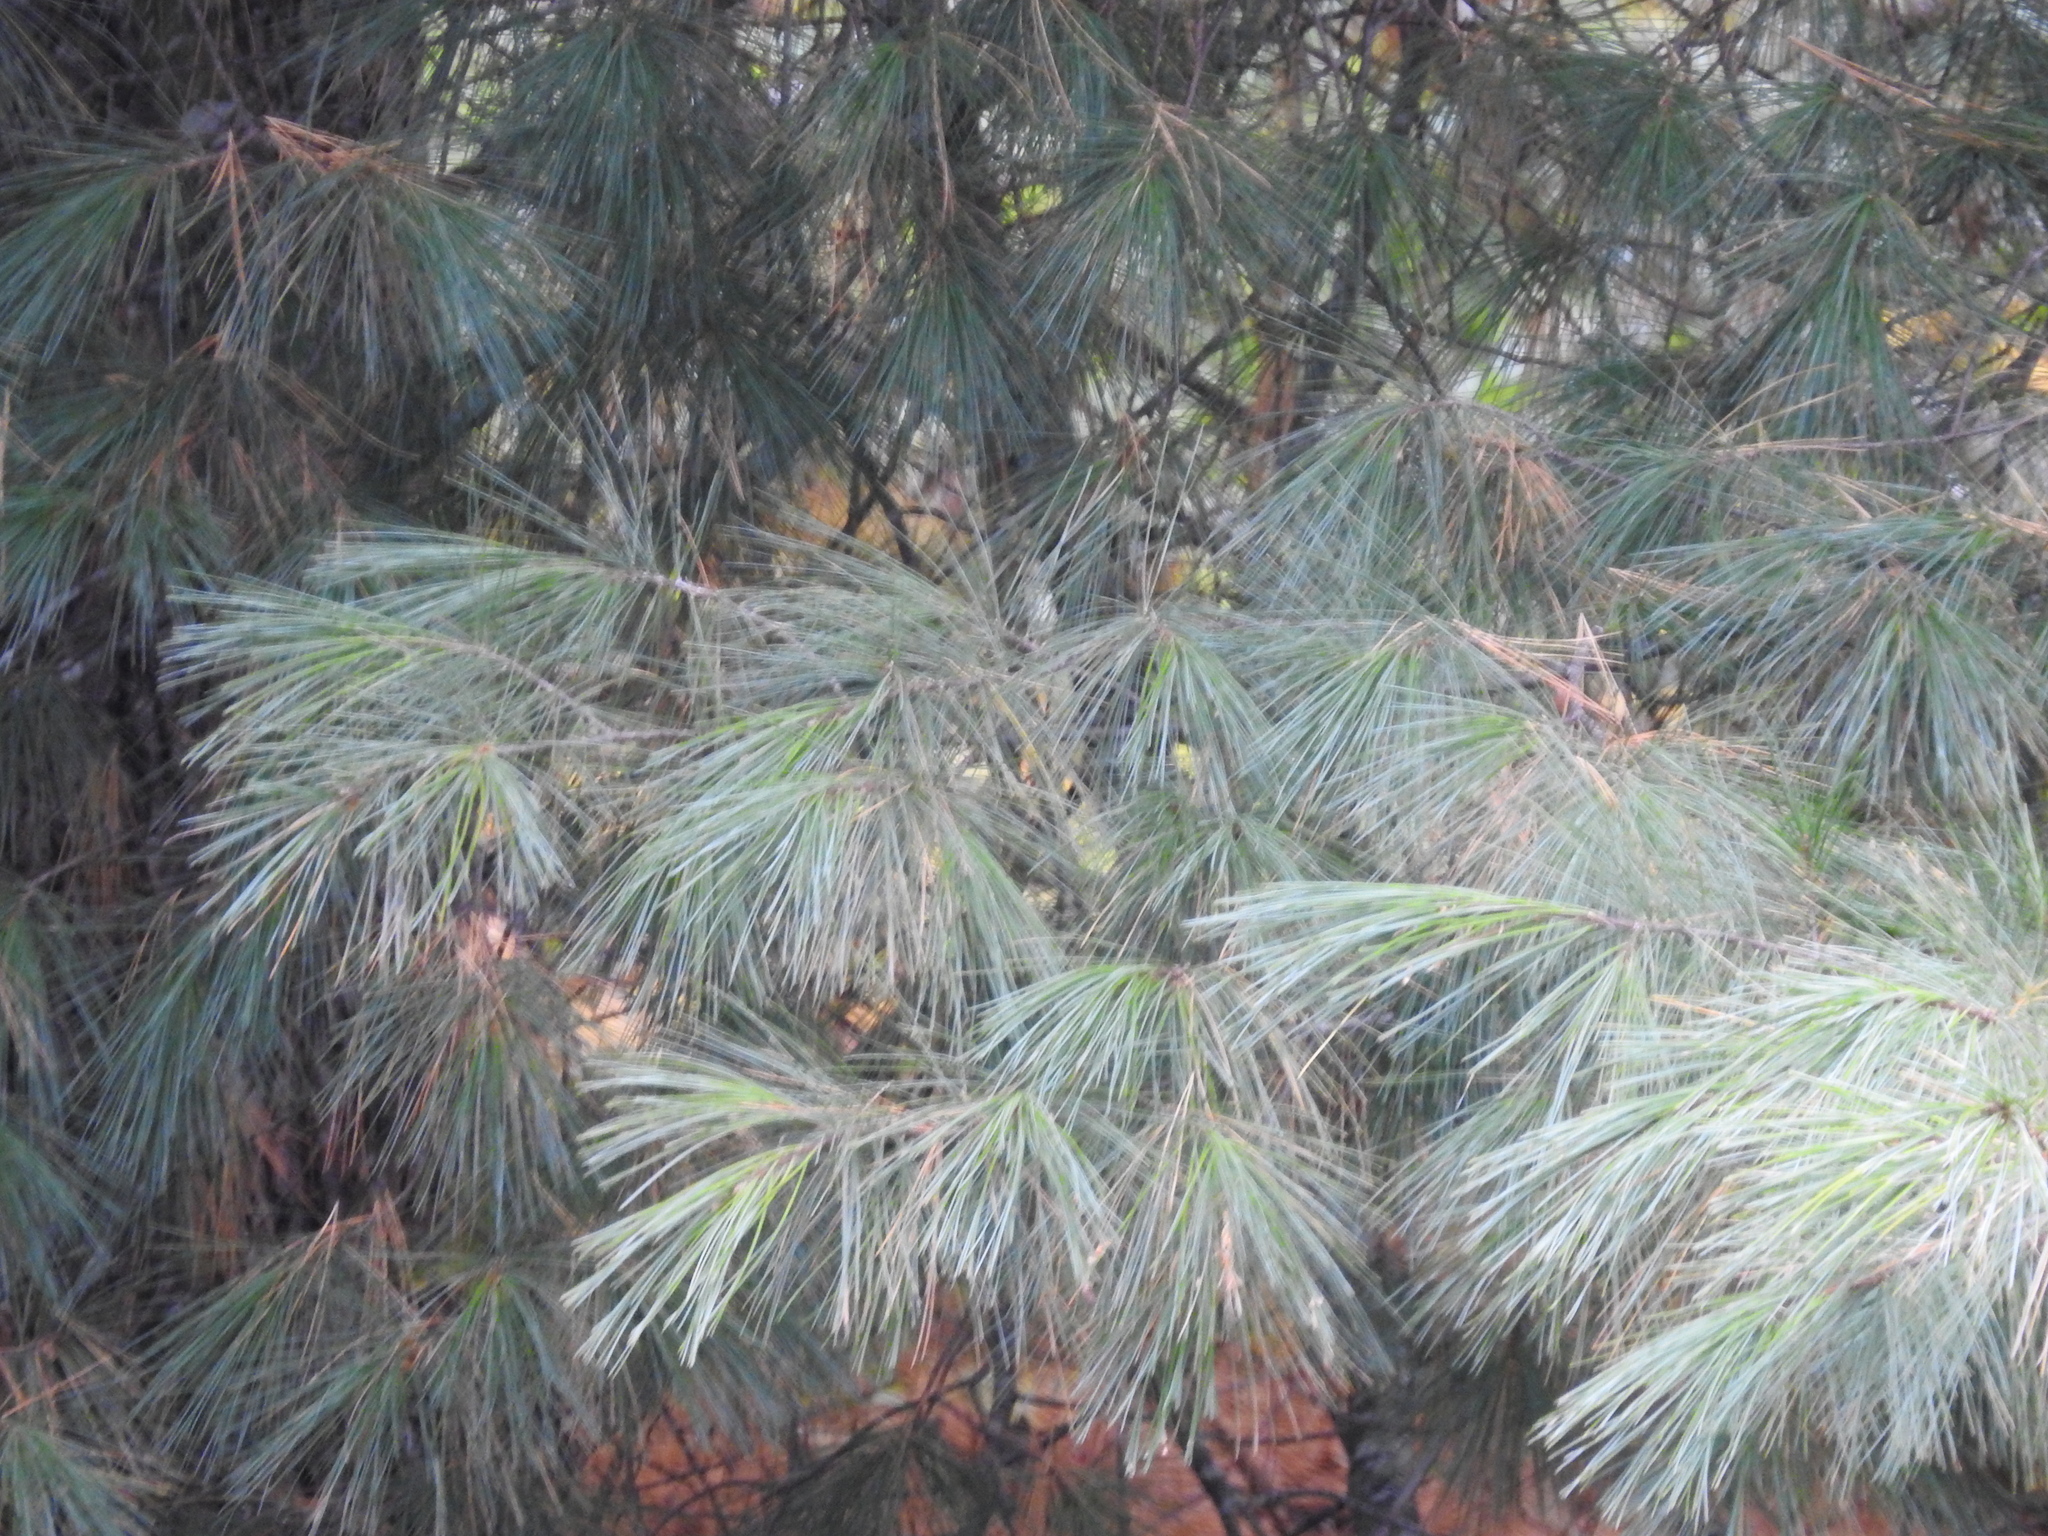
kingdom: Plantae
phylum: Tracheophyta
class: Pinopsida
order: Pinales
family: Pinaceae
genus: Pinus
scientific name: Pinus strobus
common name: Weymouth pine
